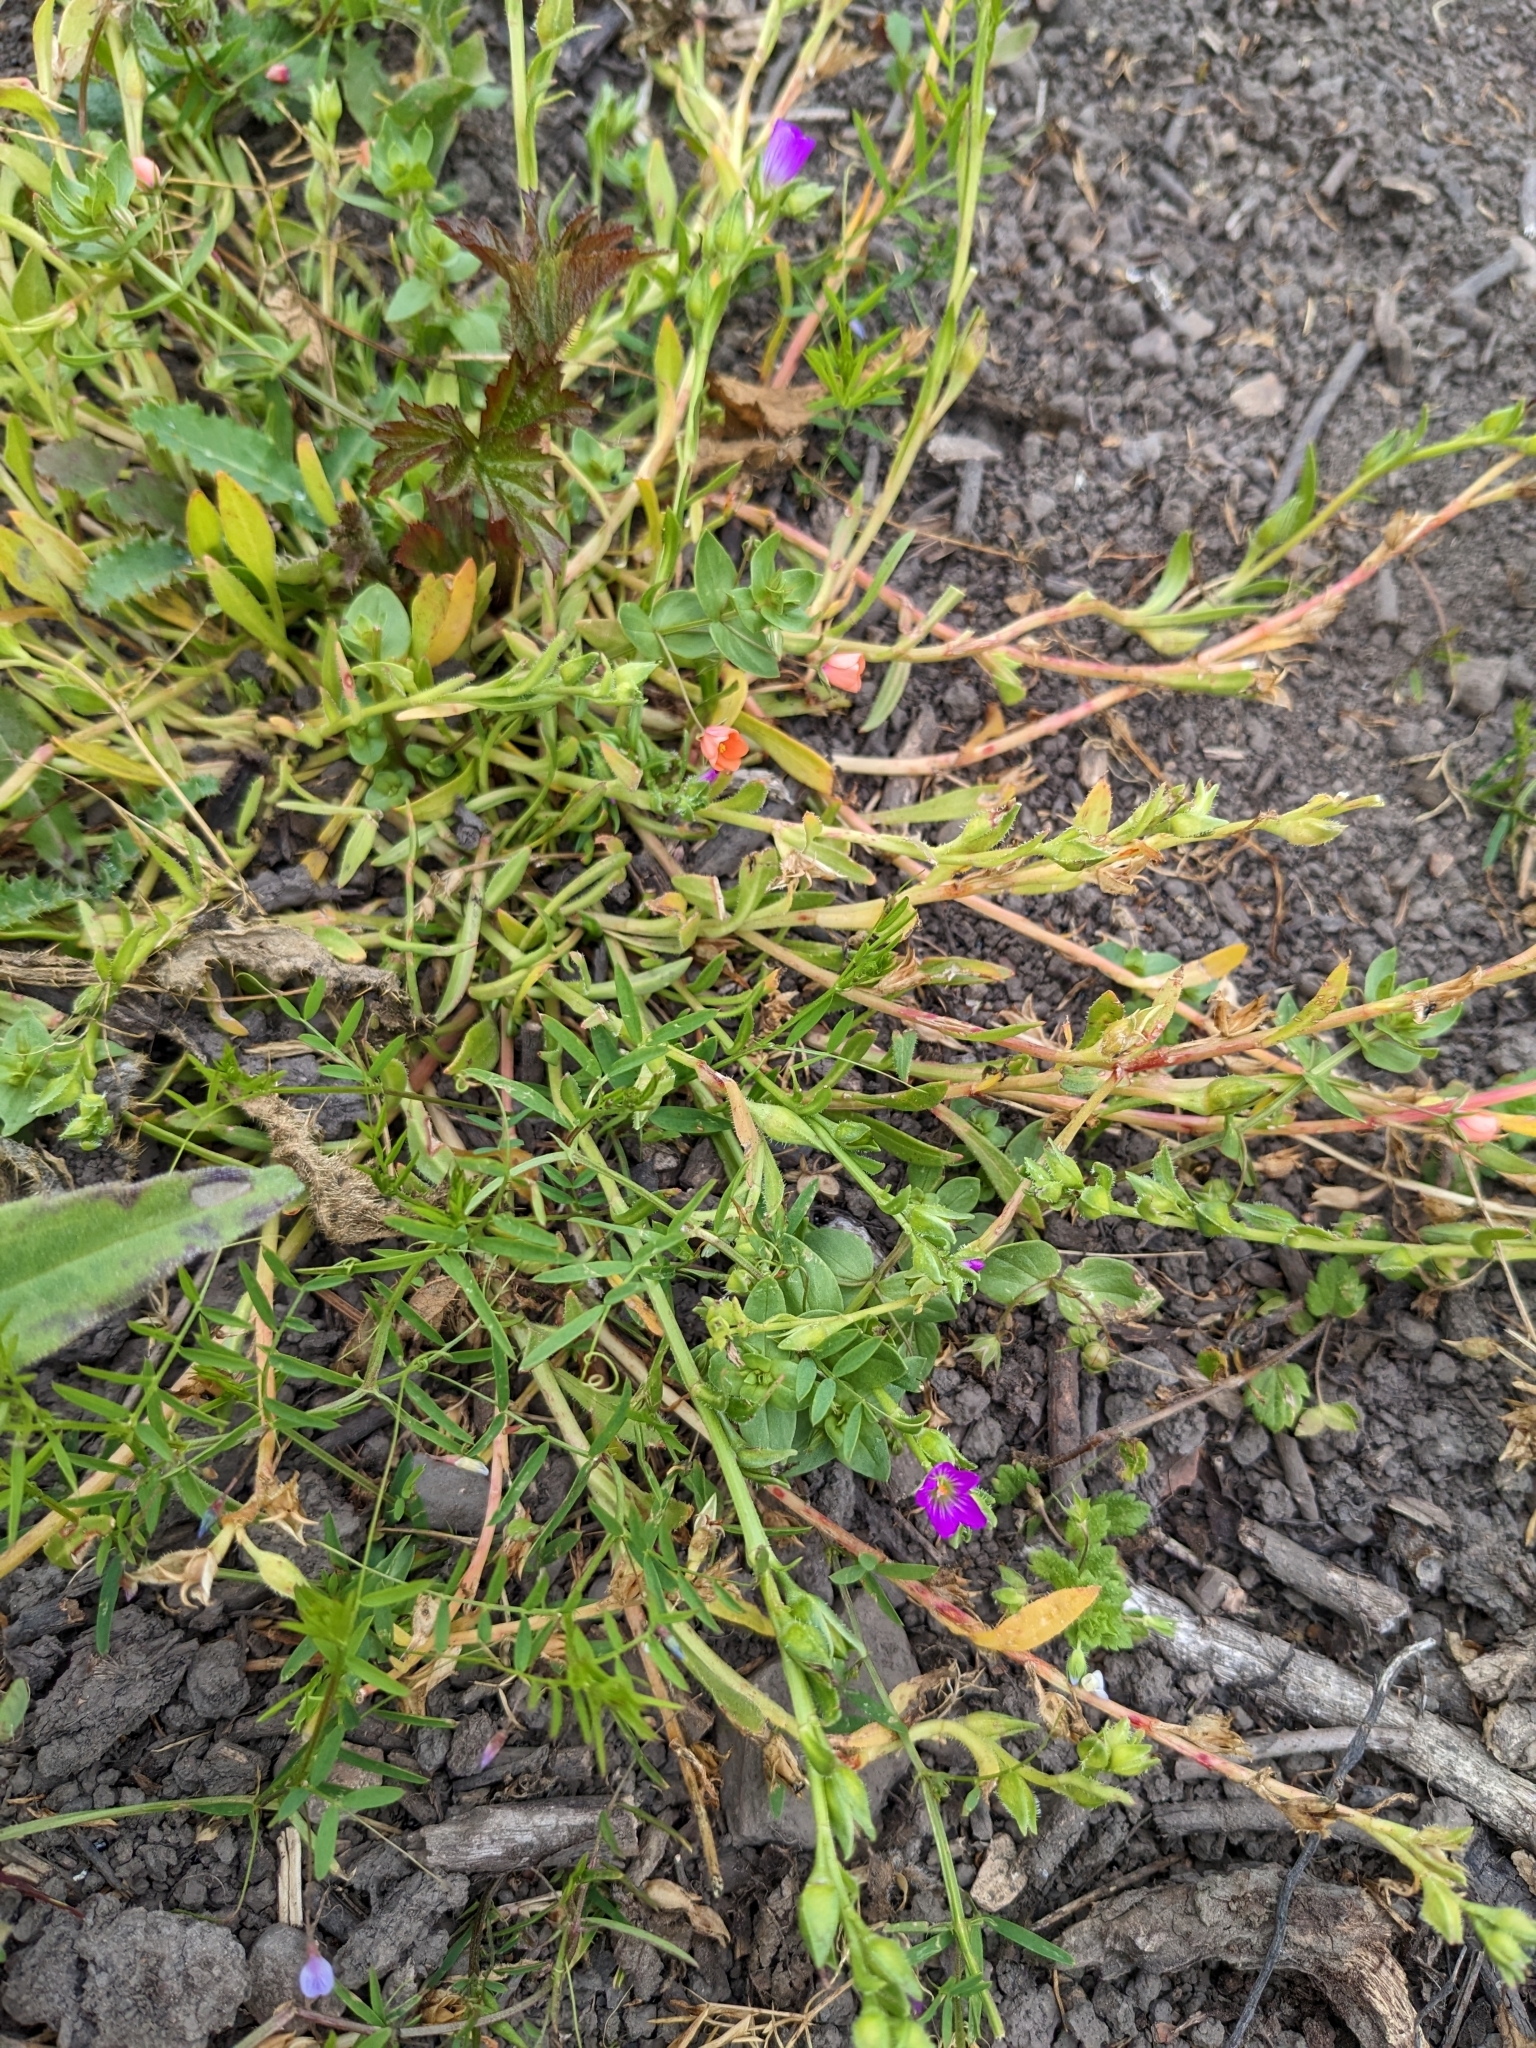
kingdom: Plantae
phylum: Tracheophyta
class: Magnoliopsida
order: Caryophyllales
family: Montiaceae
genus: Calandrinia
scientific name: Calandrinia menziesii
